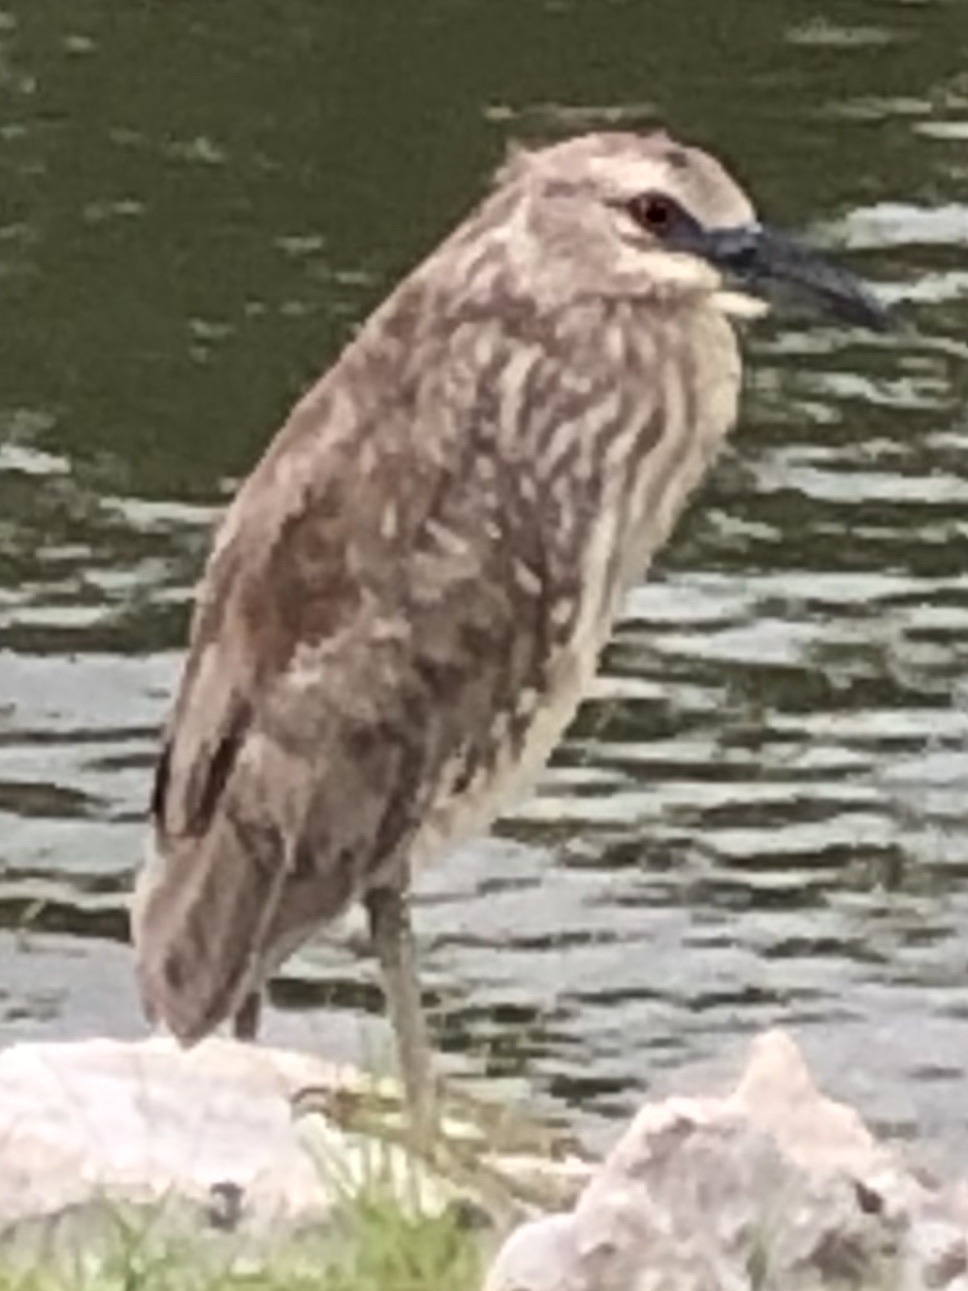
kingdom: Animalia
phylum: Chordata
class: Aves
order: Pelecaniformes
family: Ardeidae
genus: Nycticorax
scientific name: Nycticorax nycticorax
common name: Black-crowned night heron
